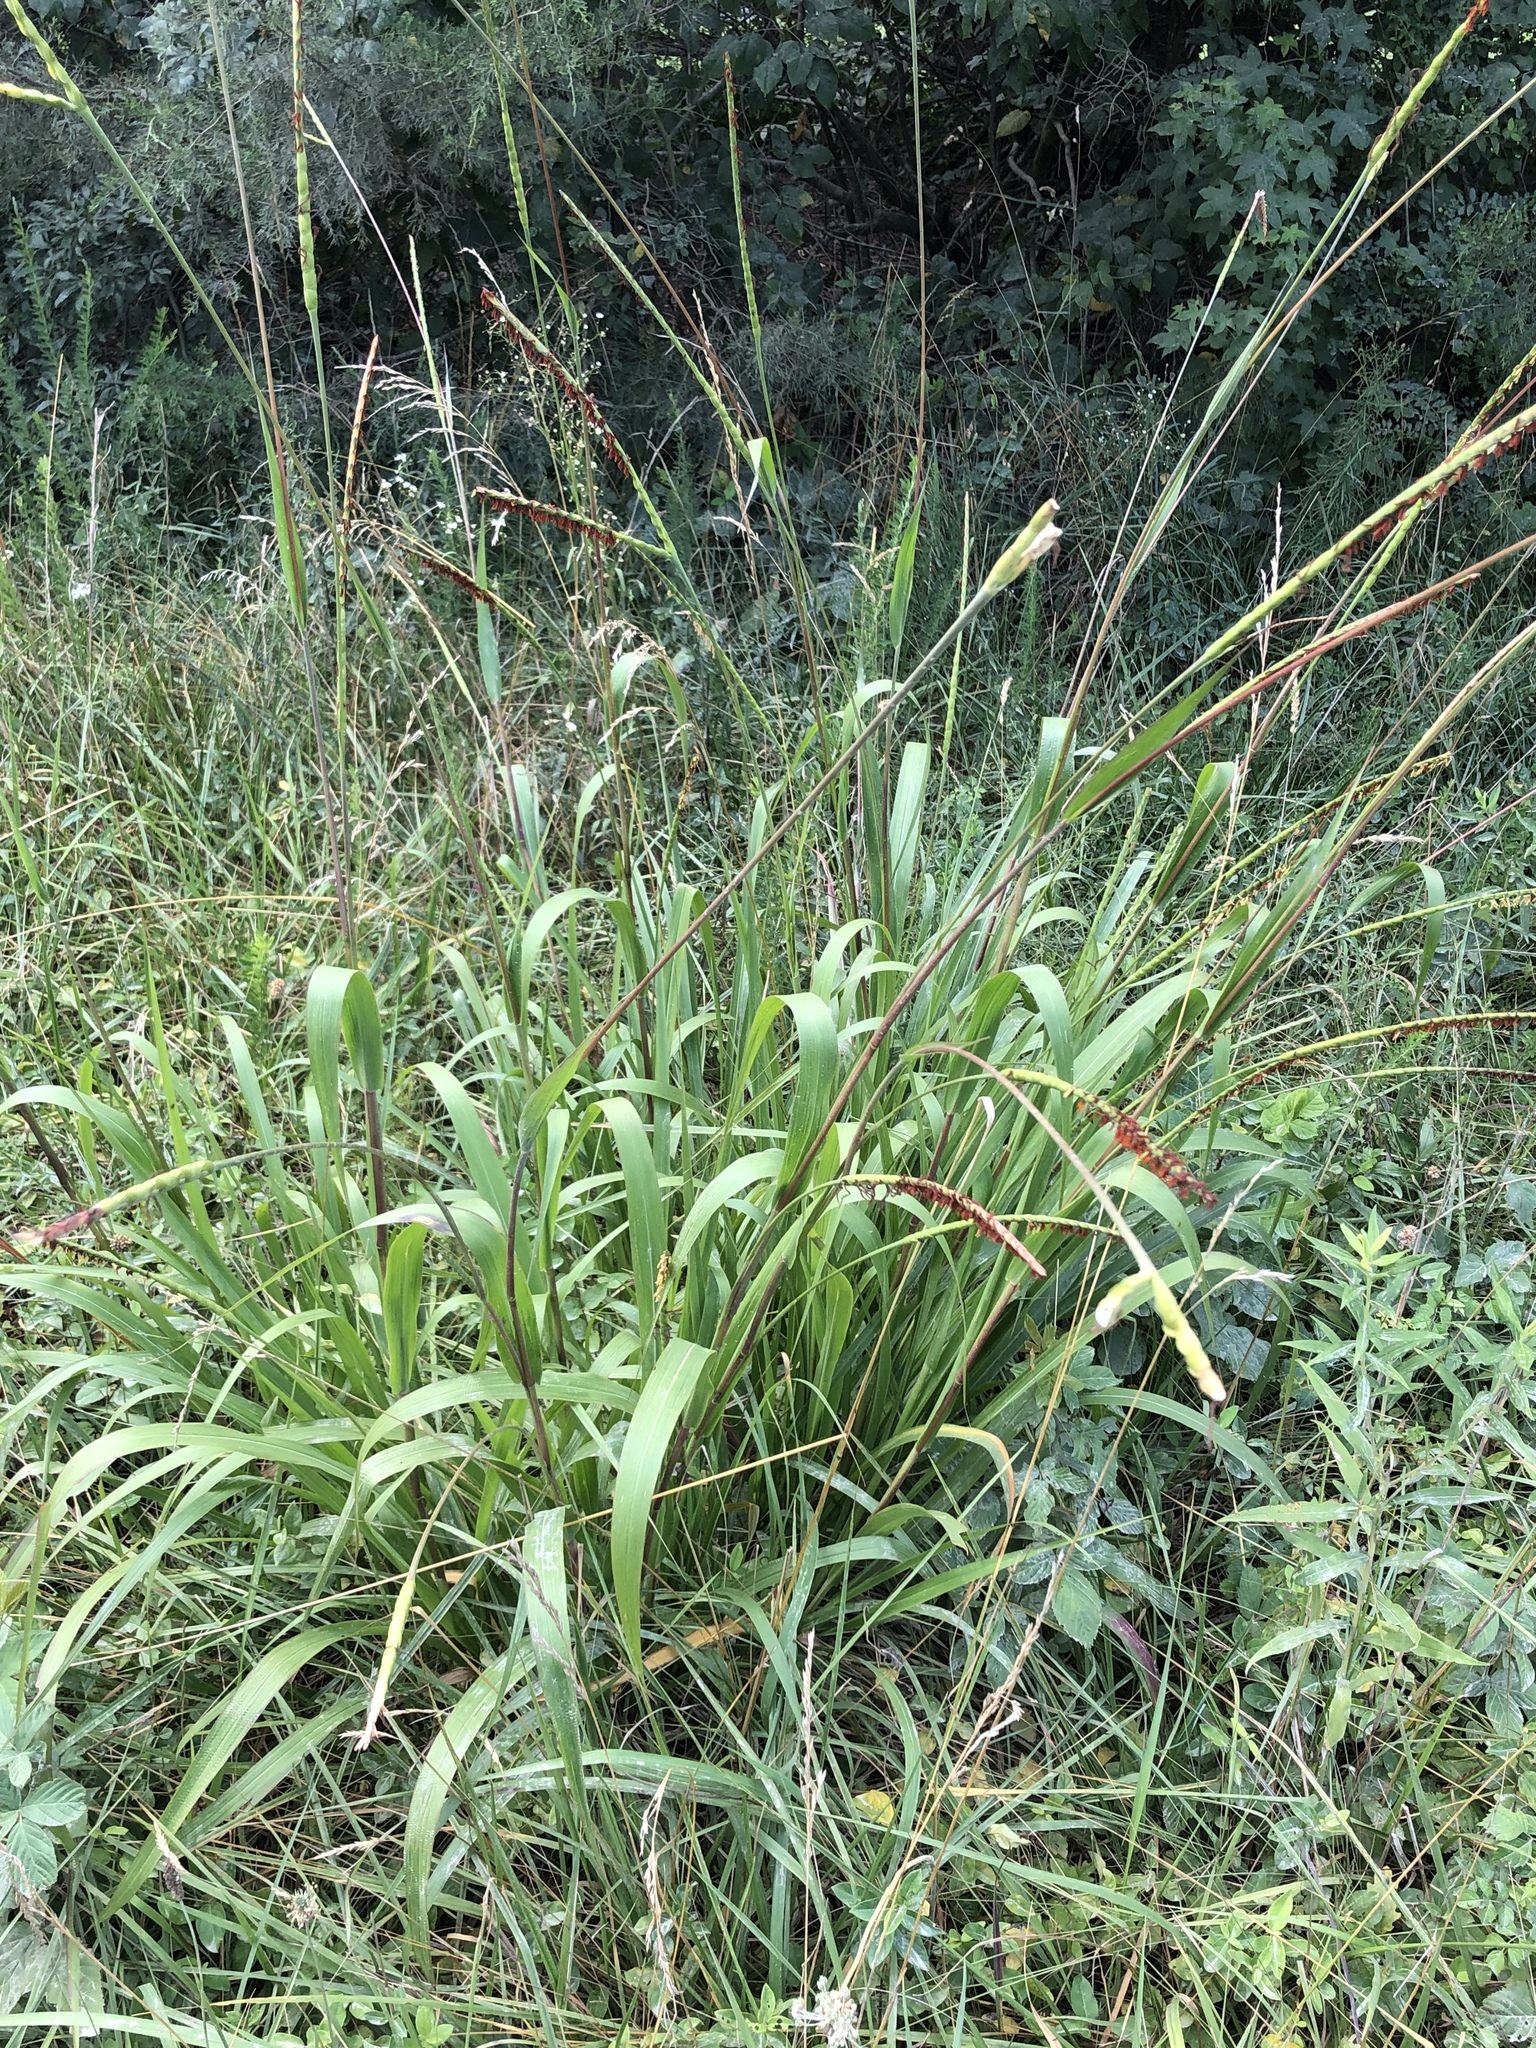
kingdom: Plantae
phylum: Tracheophyta
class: Liliopsida
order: Poales
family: Poaceae
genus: Tripsacum
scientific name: Tripsacum dactyloides
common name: Buffalo-grass
